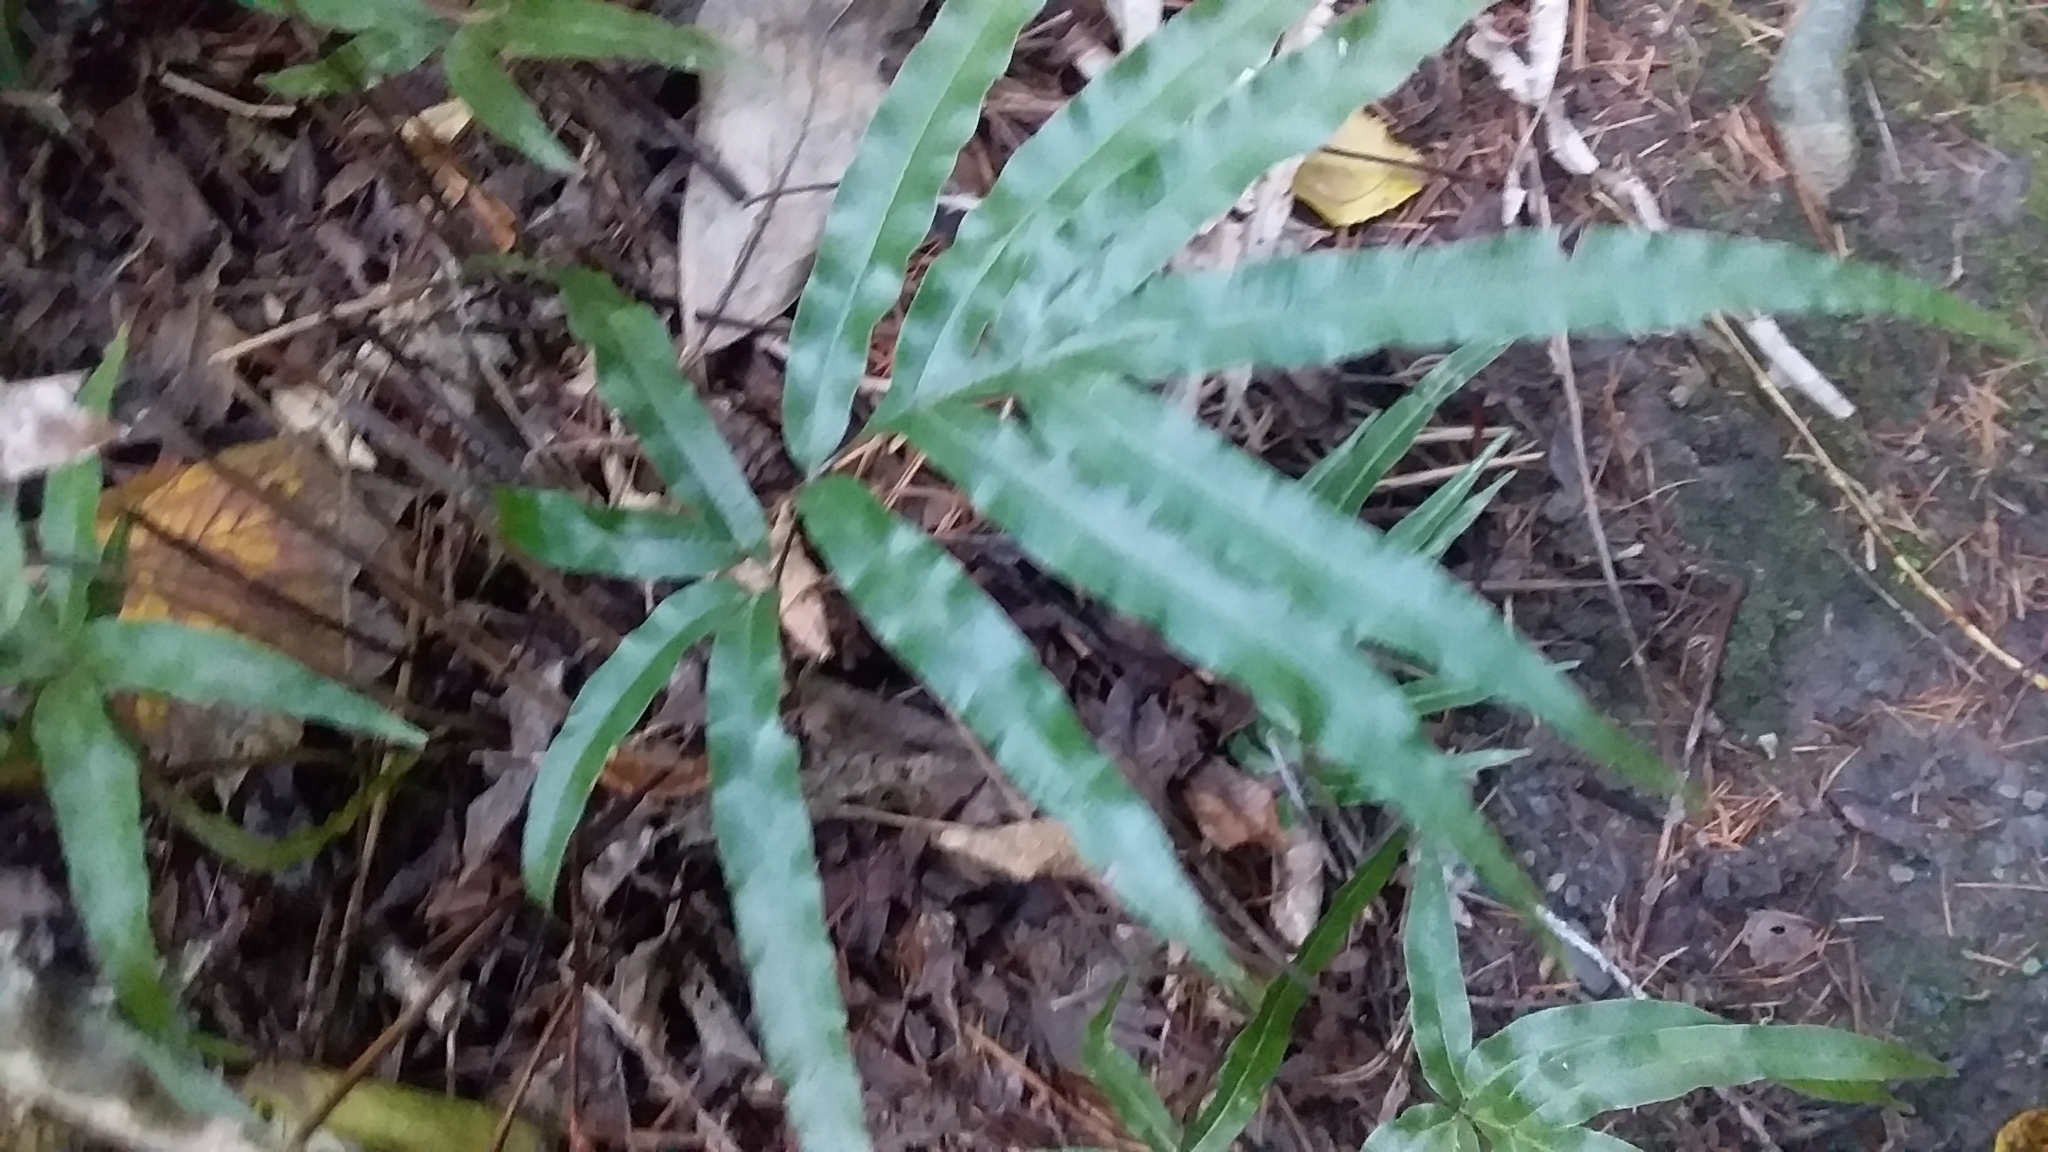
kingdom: Plantae
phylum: Tracheophyta
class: Polypodiopsida
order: Polypodiales
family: Pteridaceae
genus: Pteris
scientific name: Pteris cretica
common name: Ribbon fern
